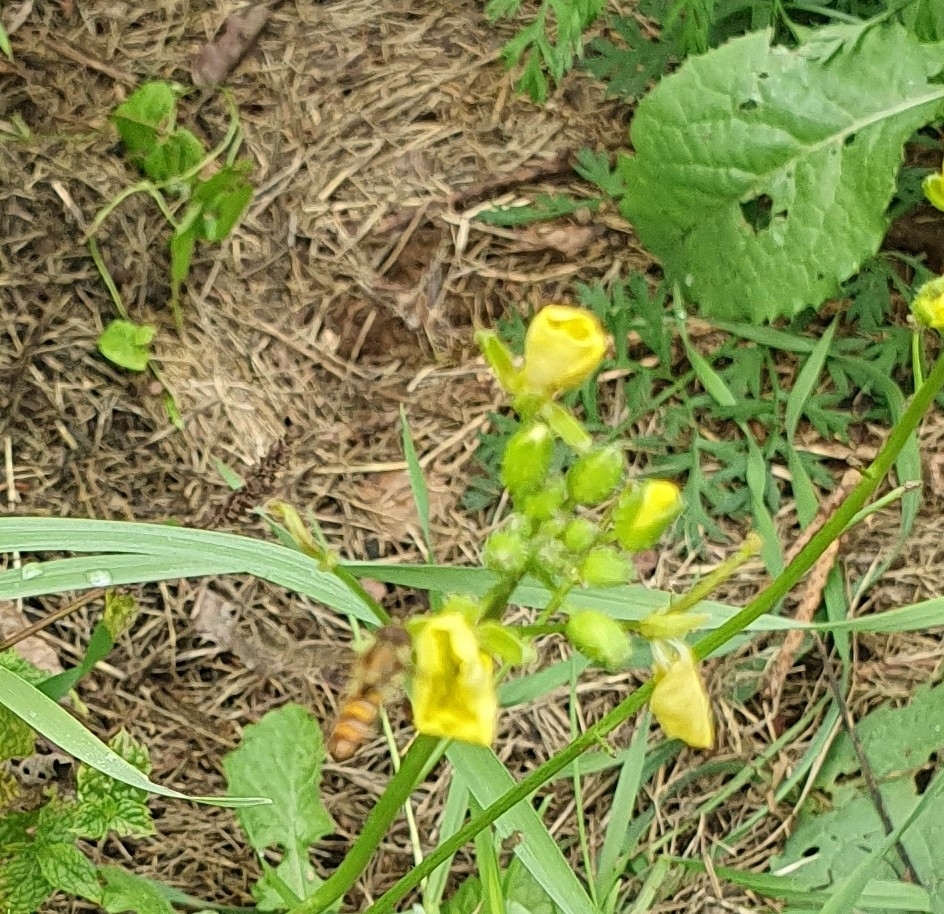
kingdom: Animalia
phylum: Arthropoda
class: Insecta
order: Diptera
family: Syrphidae
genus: Episyrphus
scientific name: Episyrphus balteatus
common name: Marmalade hoverfly
